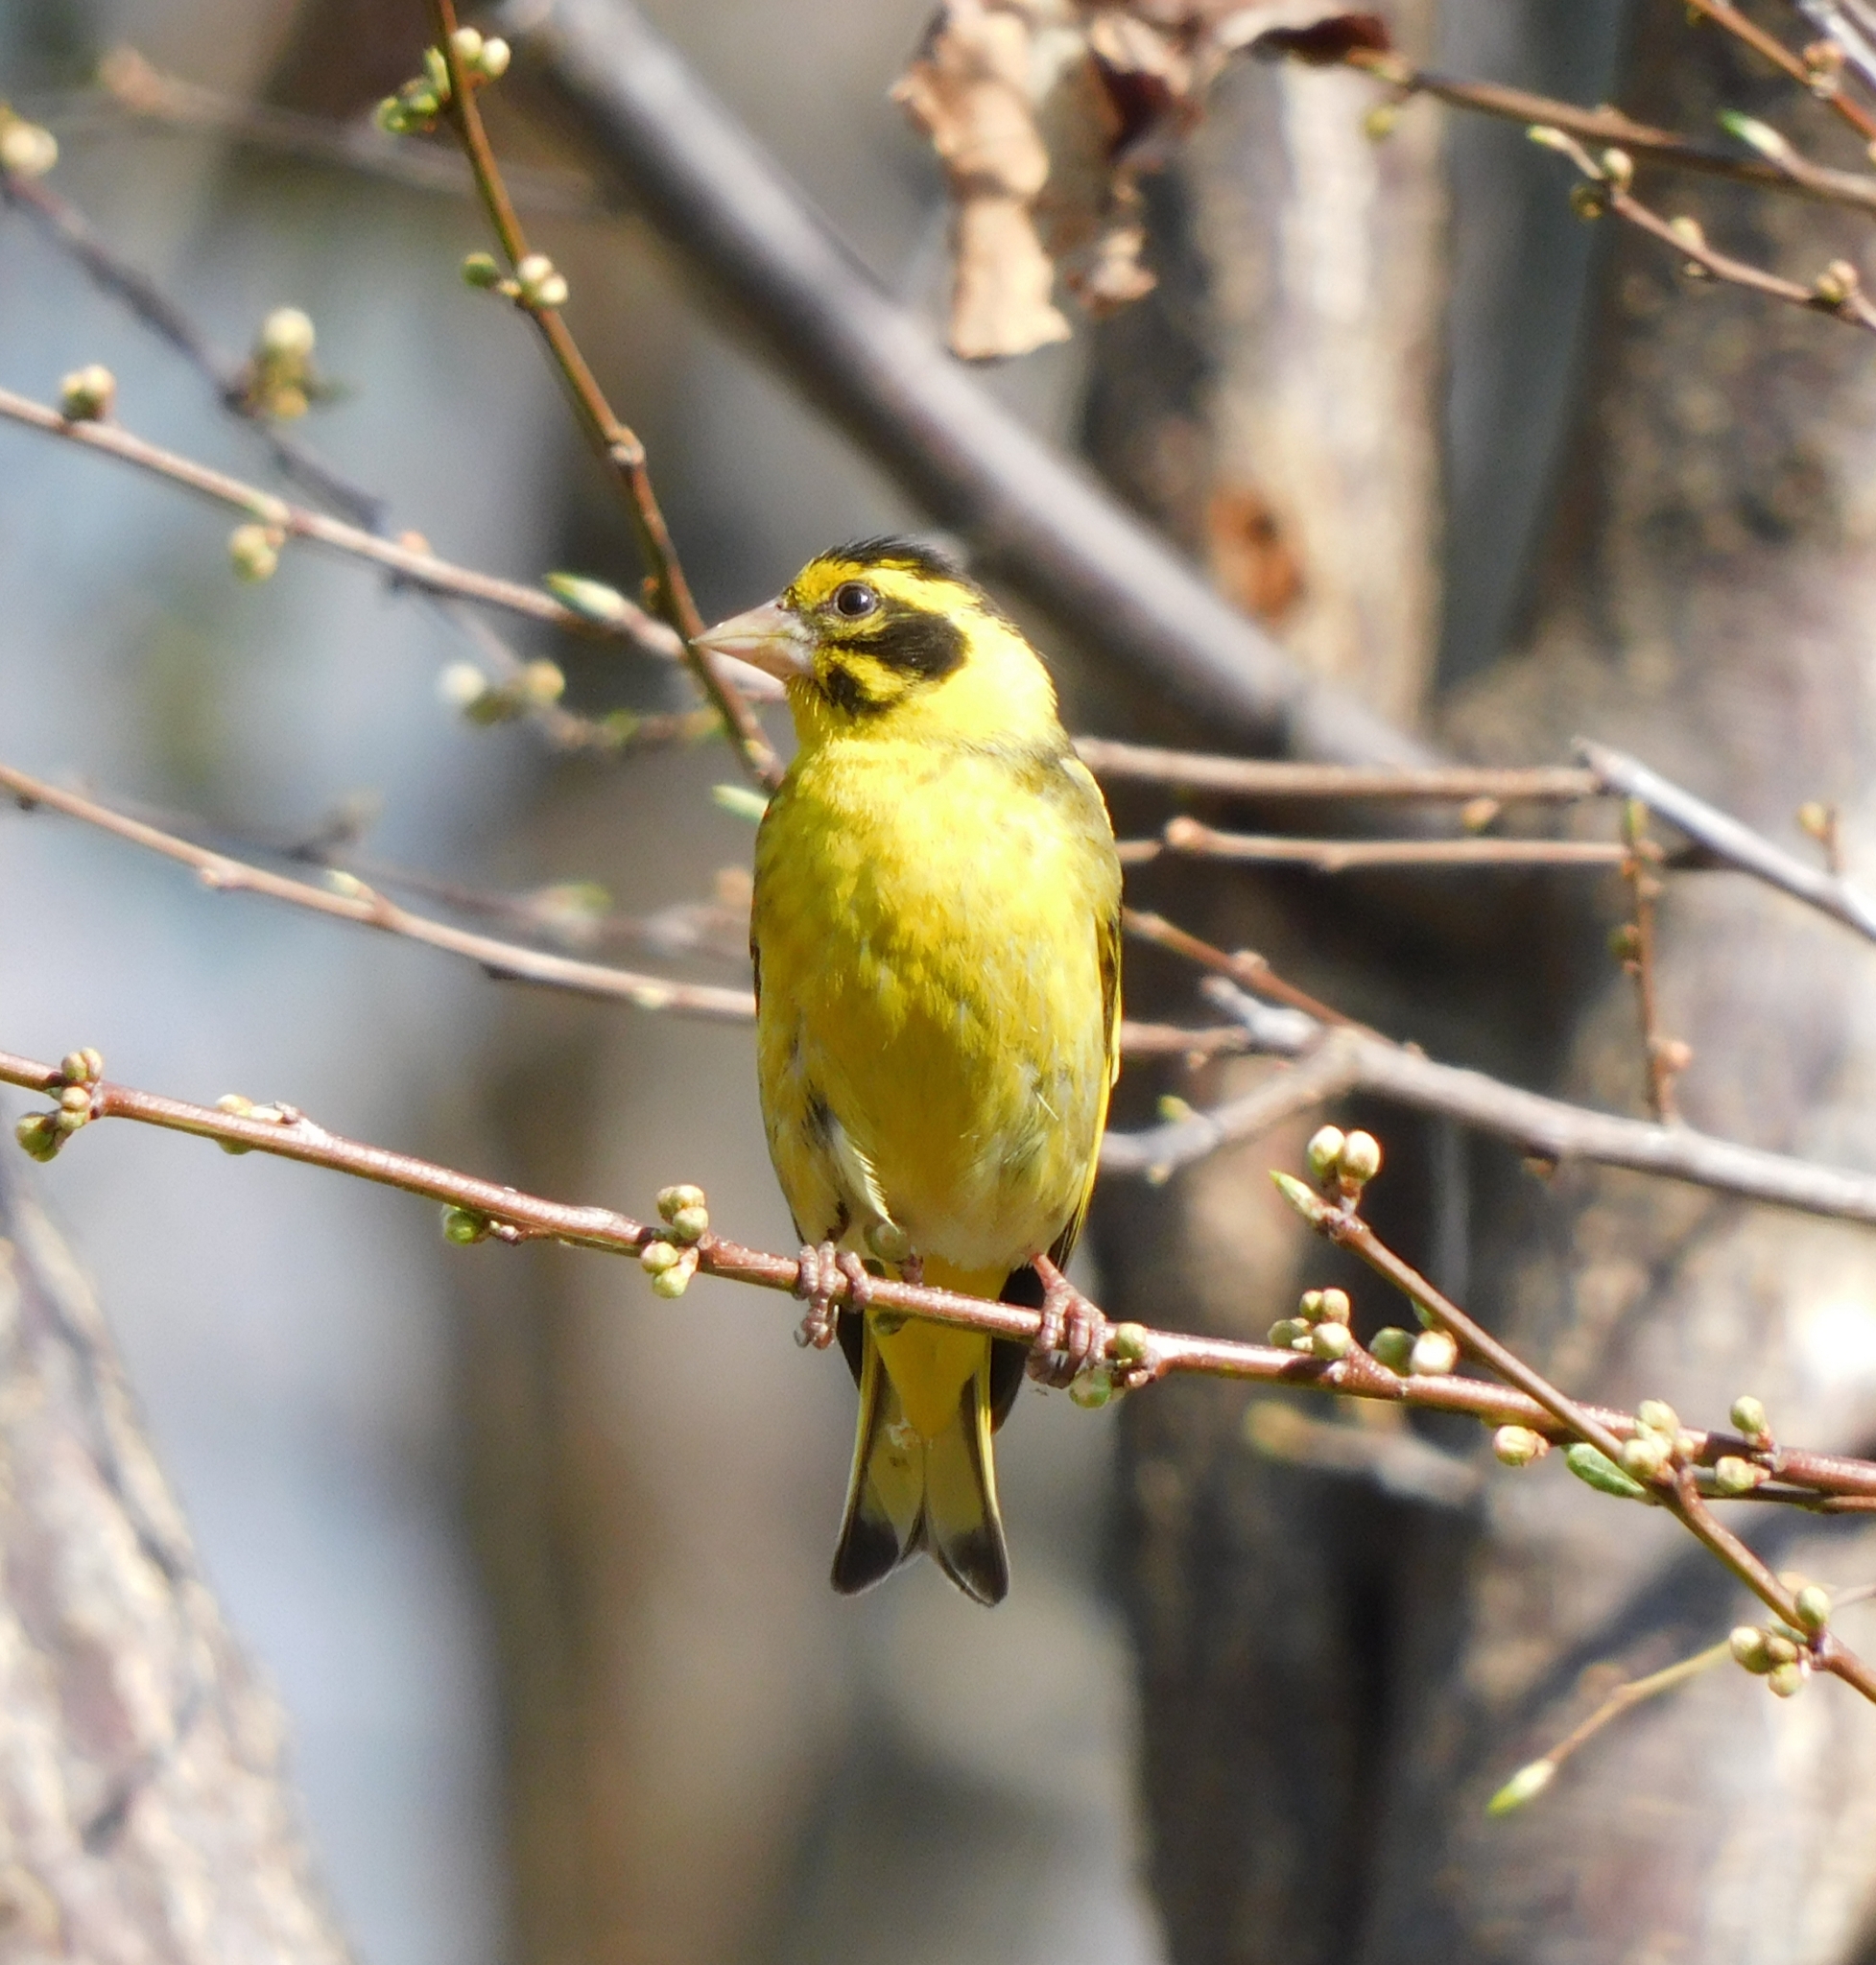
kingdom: Animalia
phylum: Chordata
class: Aves
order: Passeriformes
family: Fringillidae
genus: Chloris
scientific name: Chloris spinoides
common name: Yellow-breasted greenfinch
